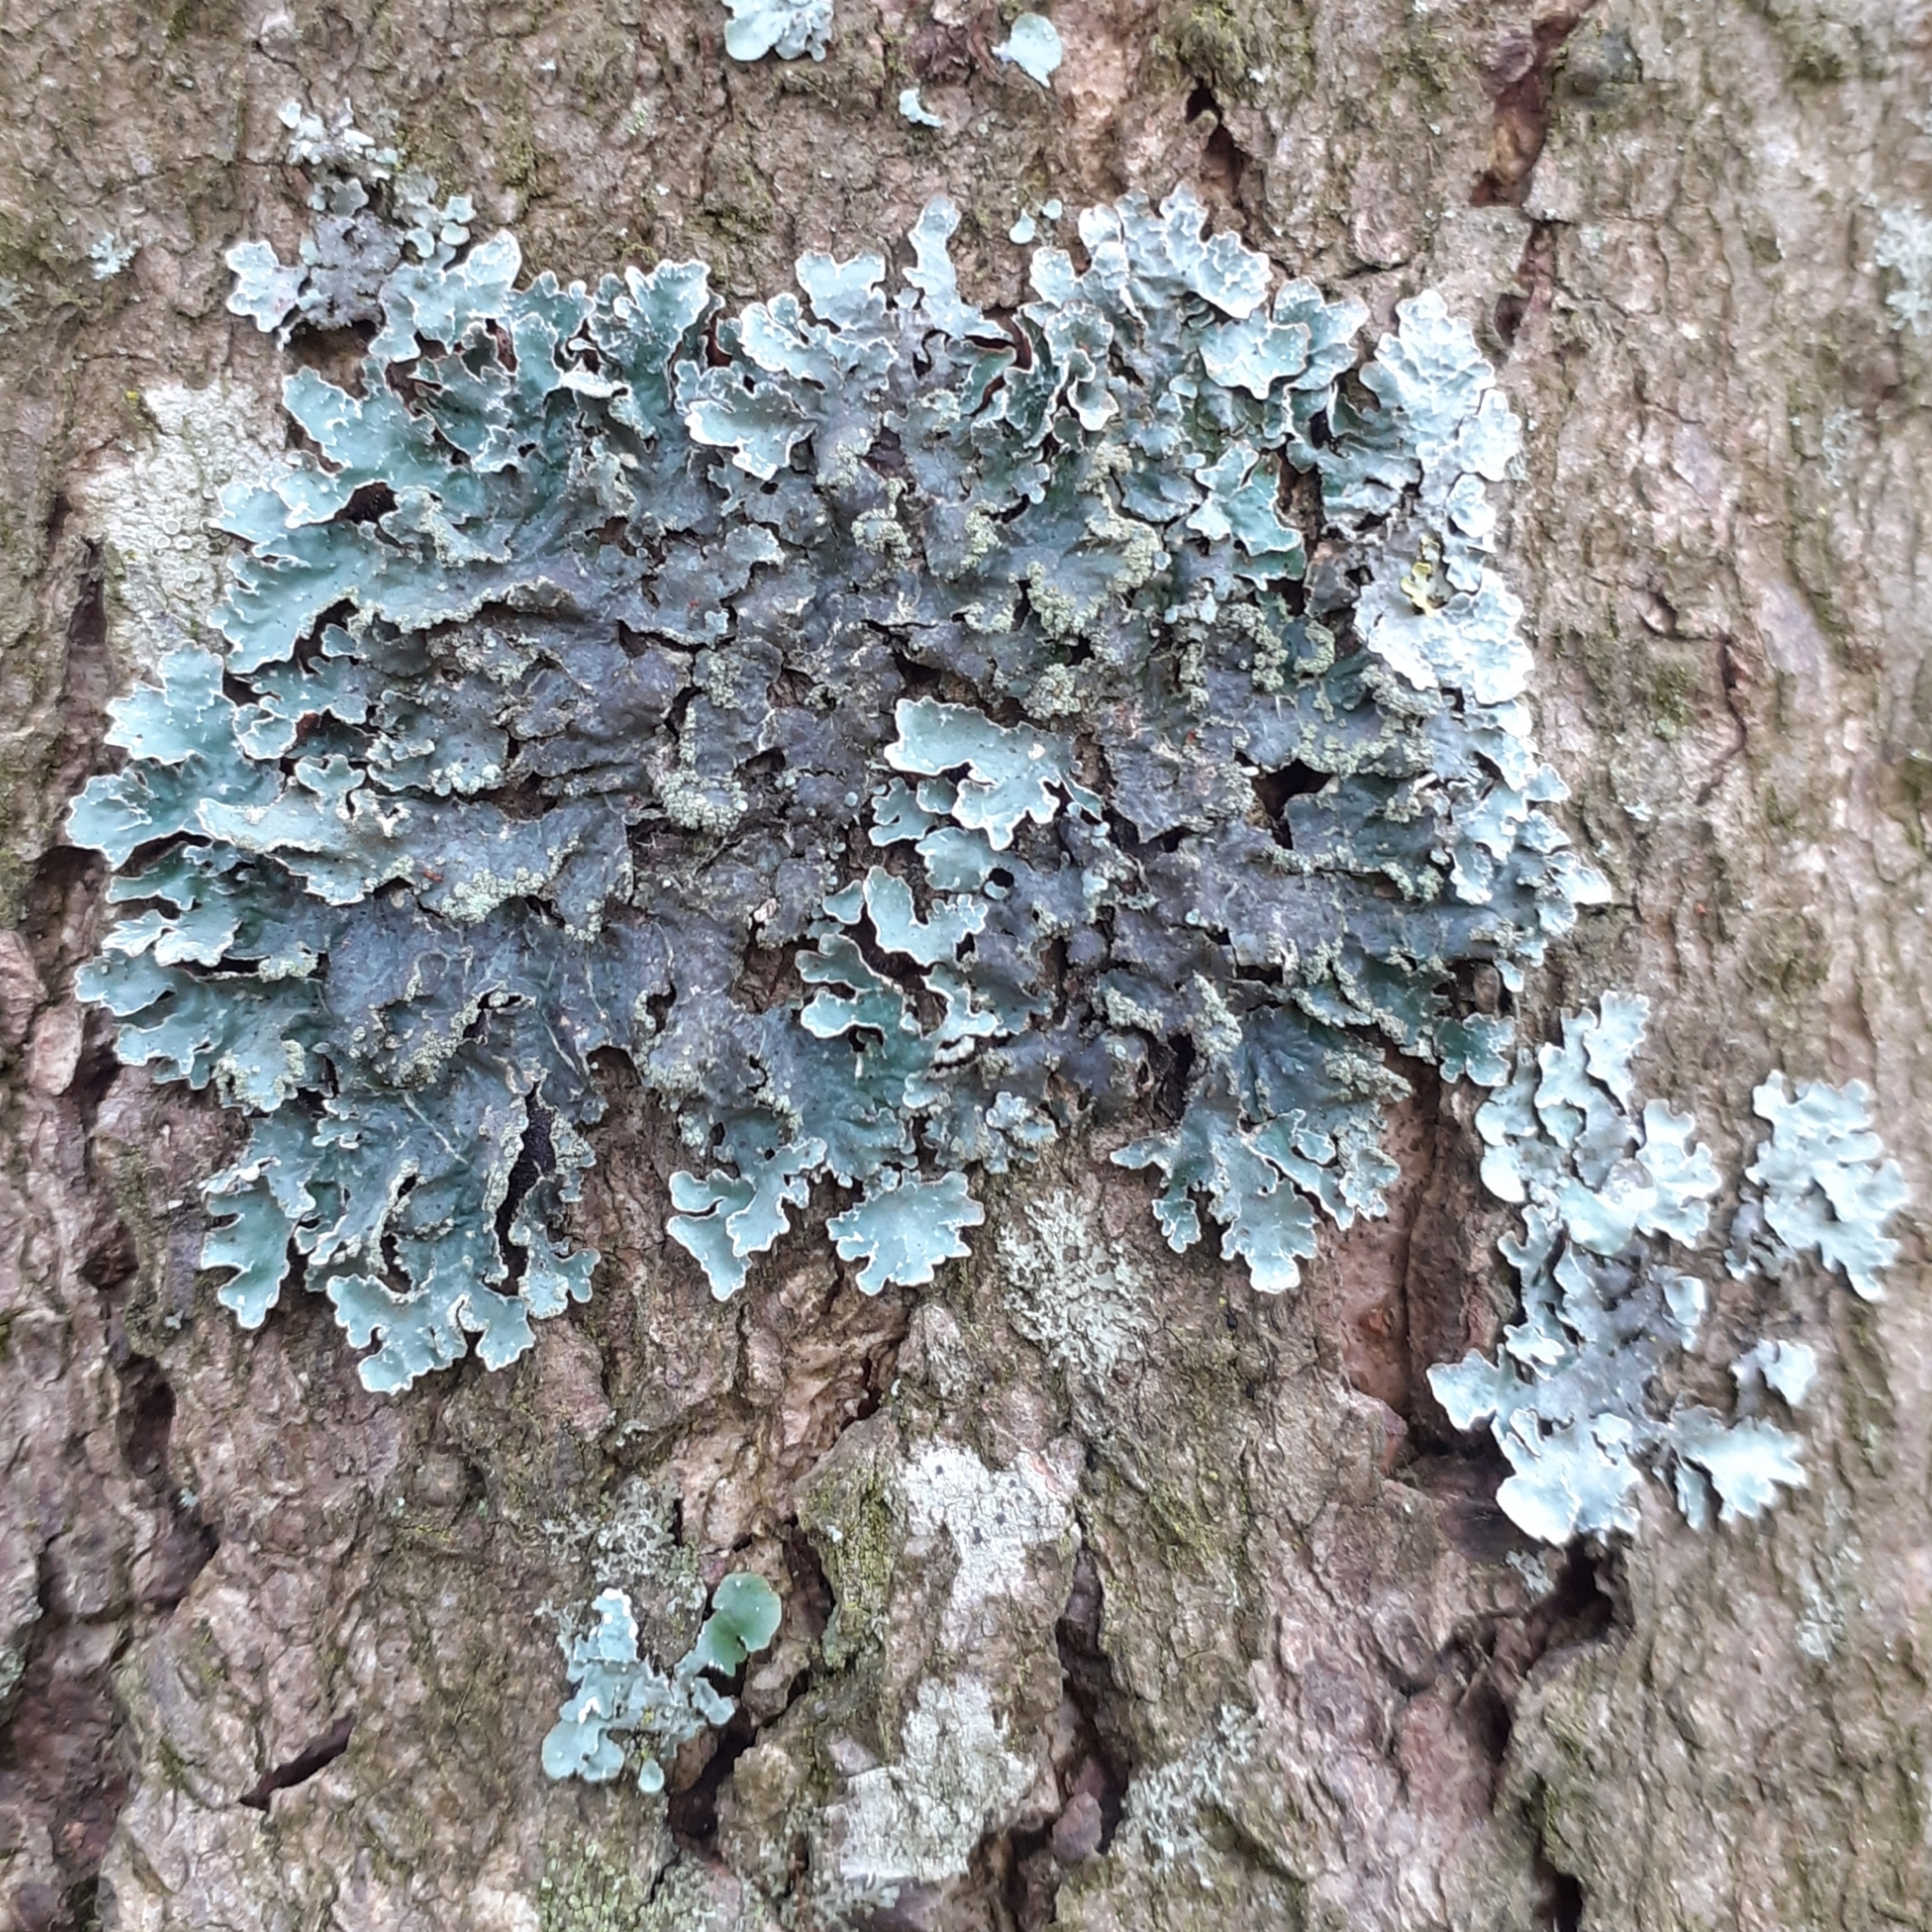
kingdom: Fungi
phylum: Ascomycota
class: Lecanoromycetes
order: Lecanorales
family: Parmeliaceae
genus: Parmelia
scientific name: Parmelia sulcata
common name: Netted shield lichen
